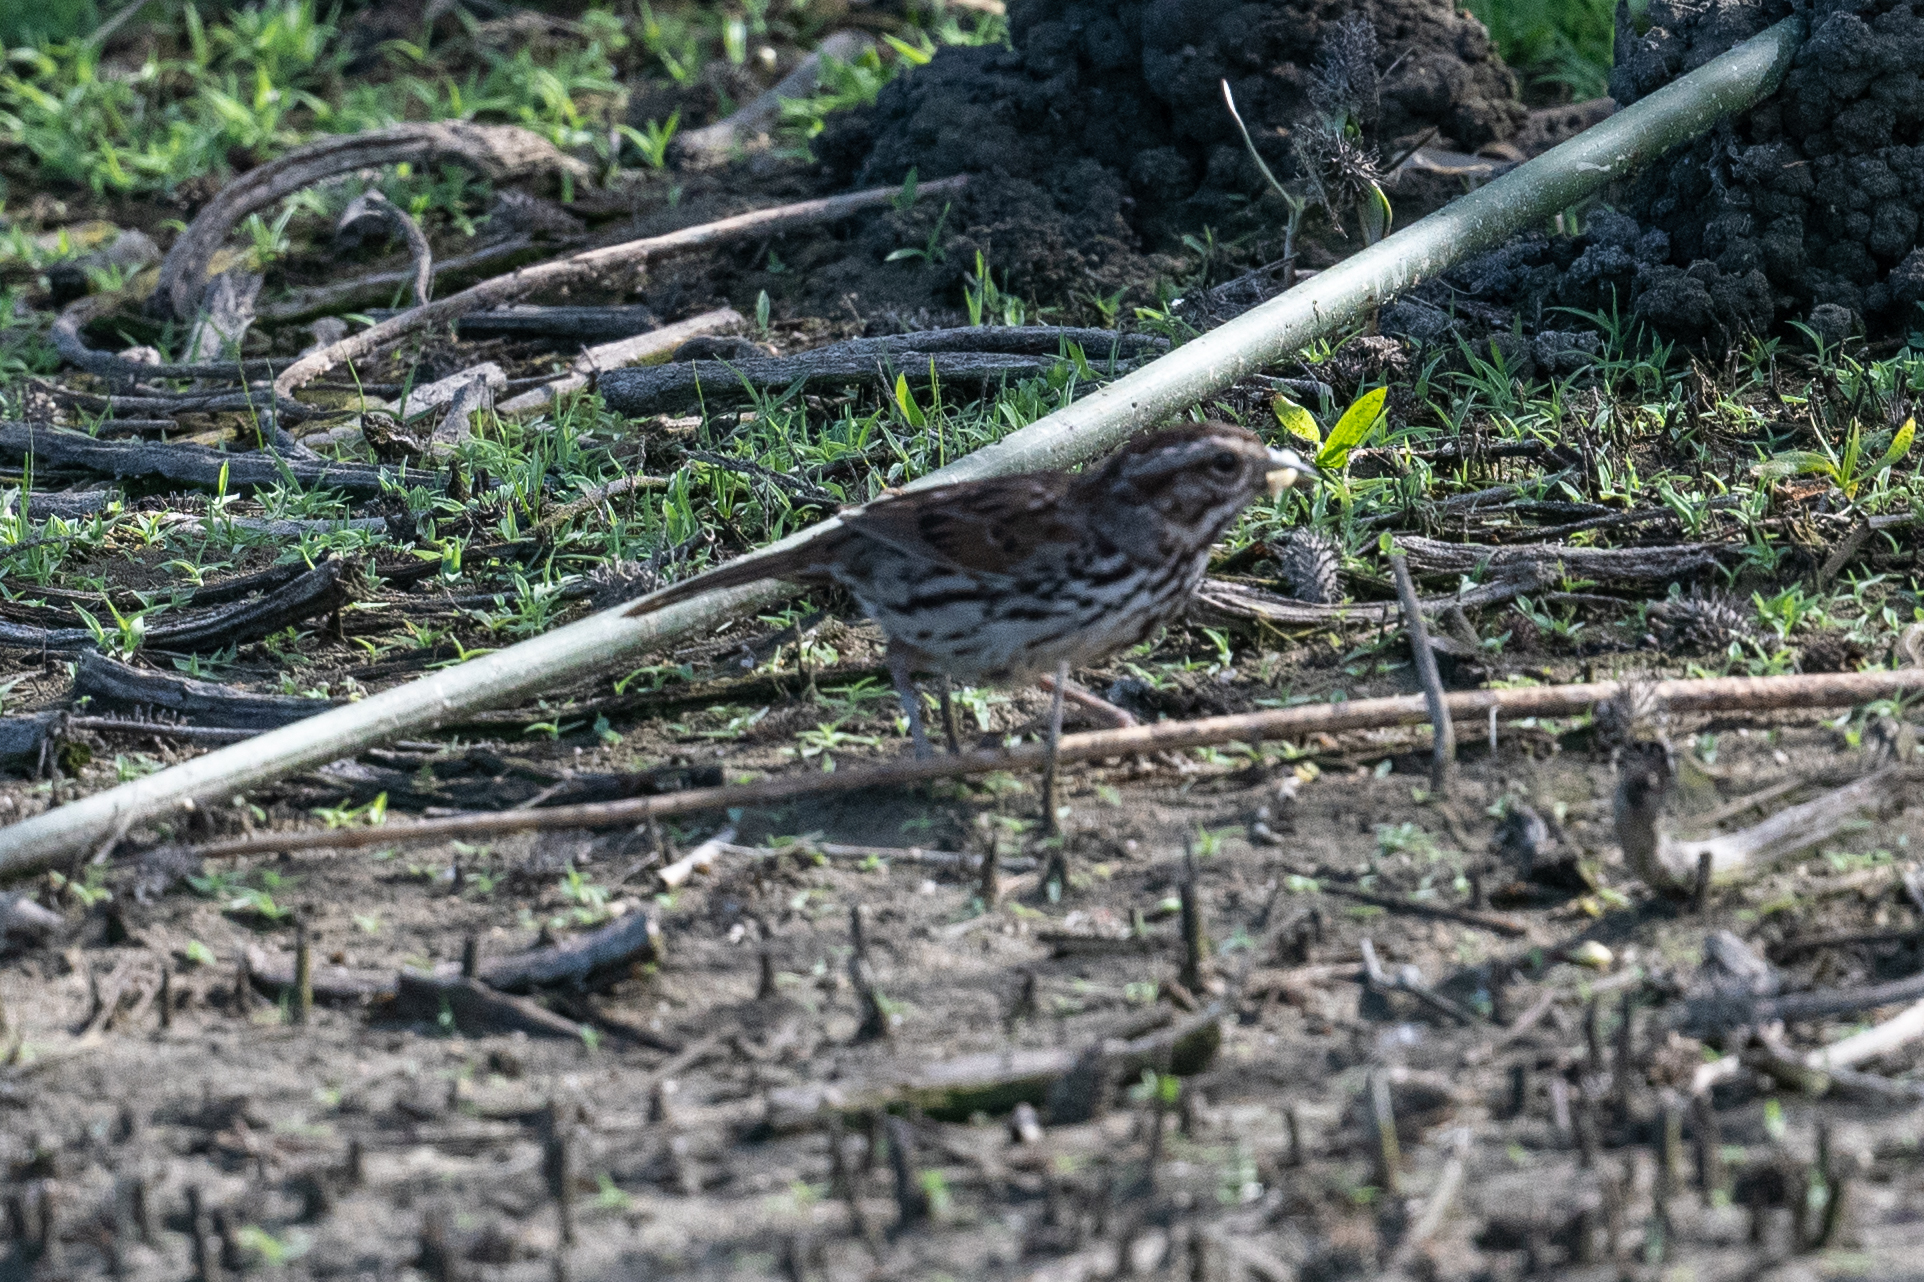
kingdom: Animalia
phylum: Chordata
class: Aves
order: Passeriformes
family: Passerellidae
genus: Melospiza
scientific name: Melospiza melodia
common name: Song sparrow
